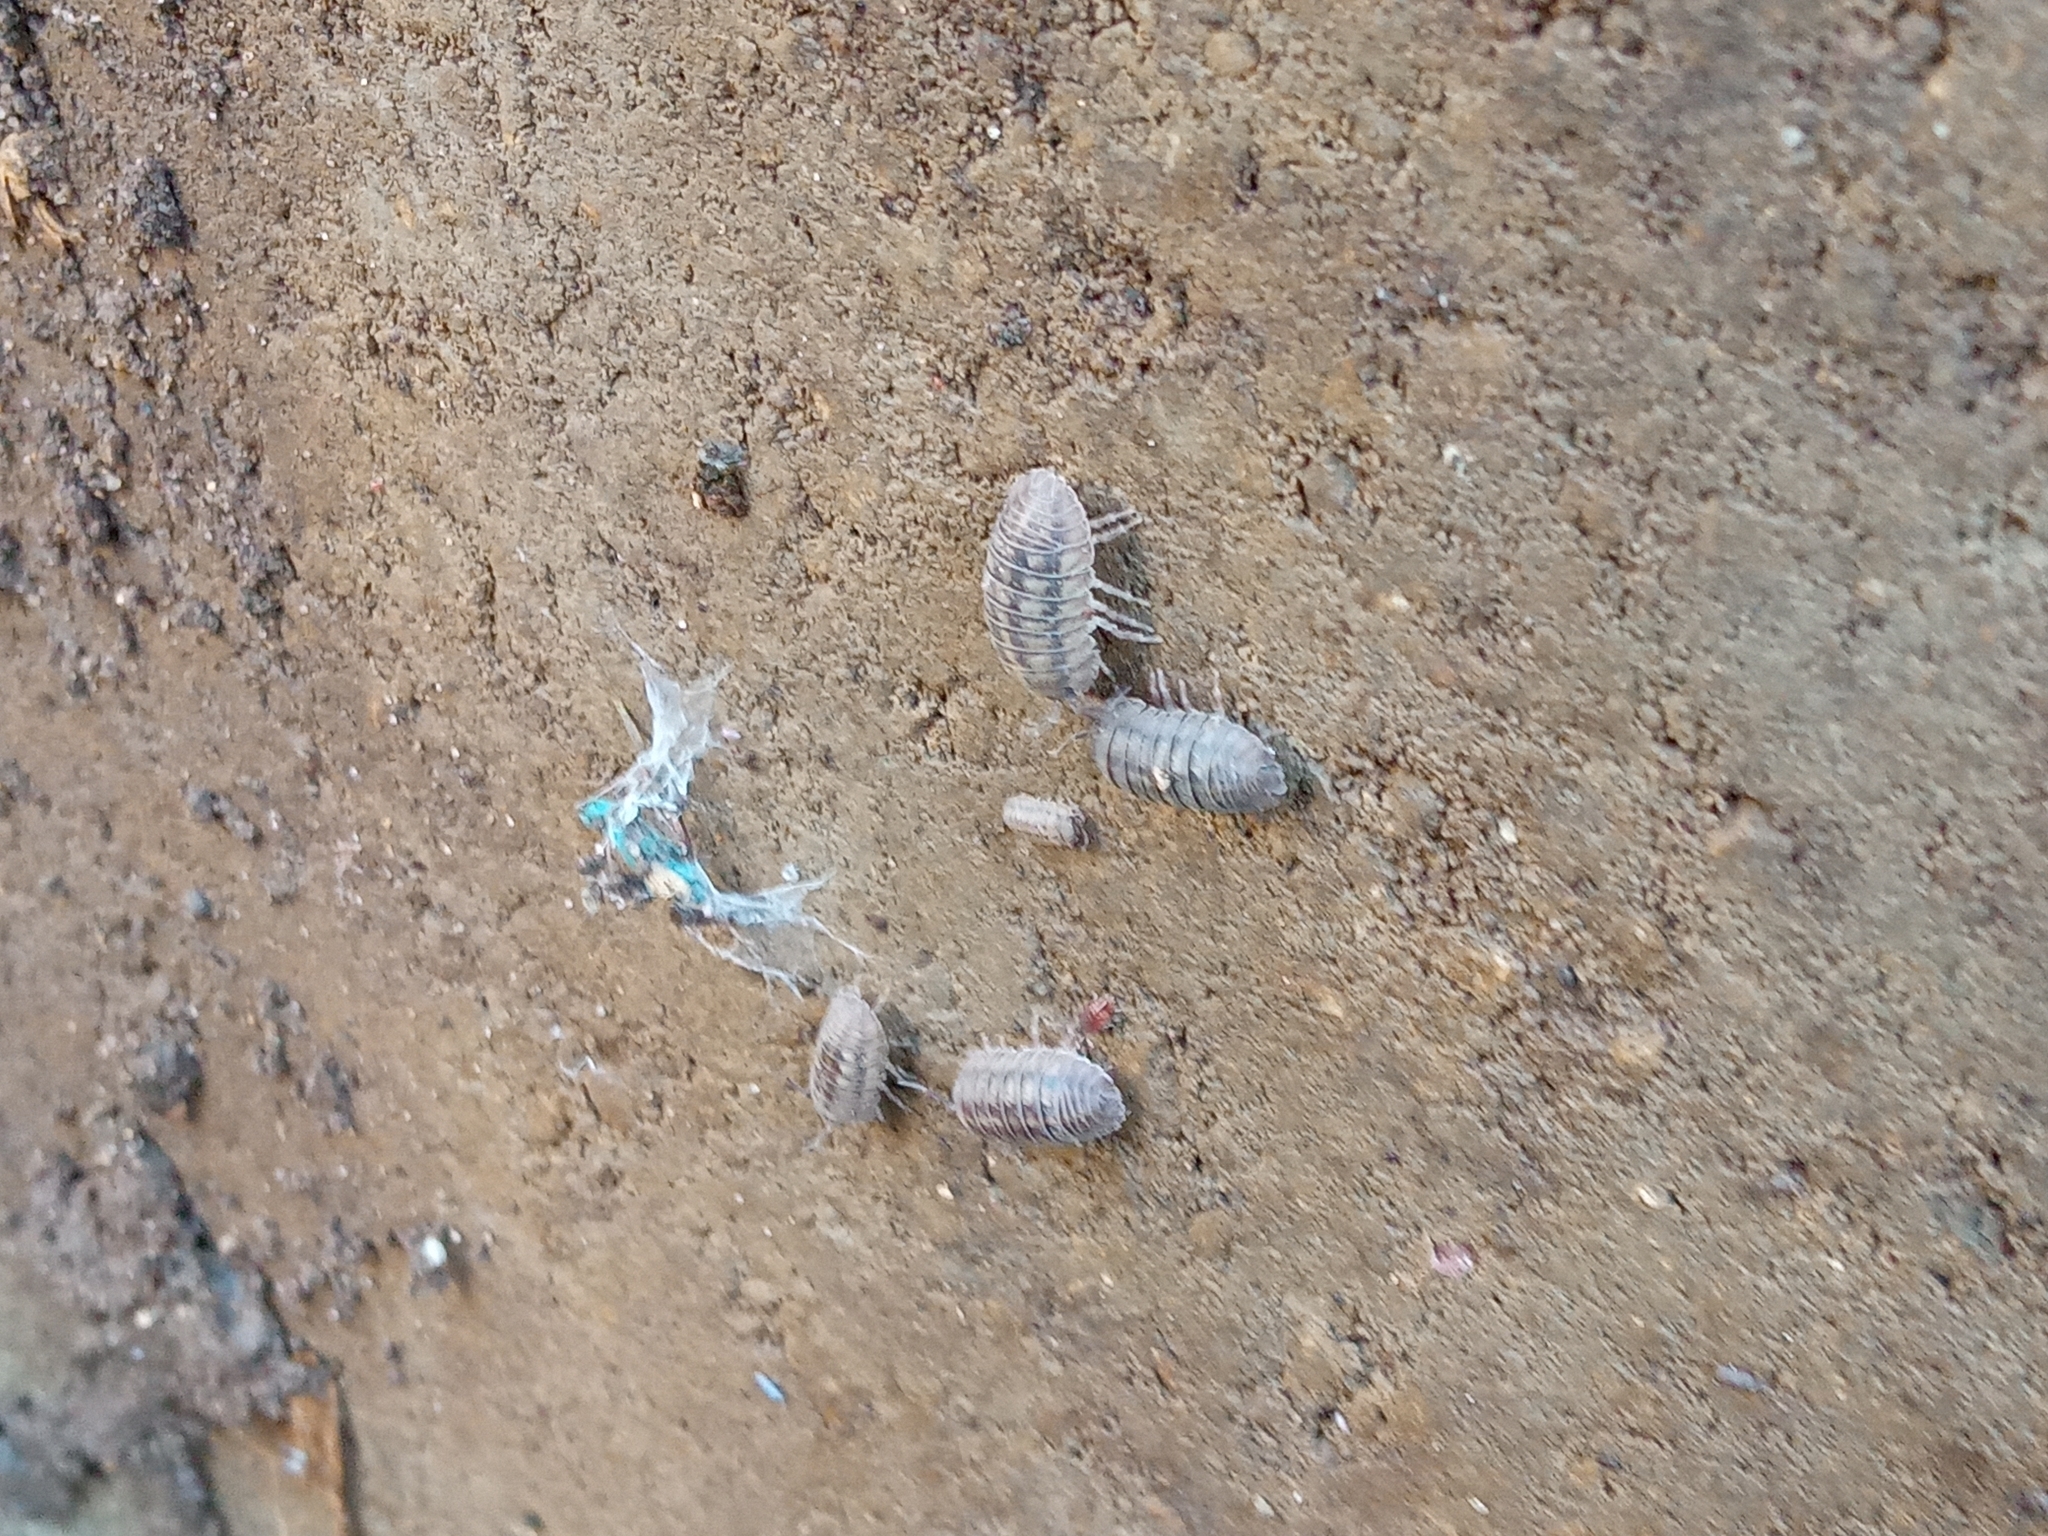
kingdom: Animalia
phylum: Arthropoda
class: Malacostraca
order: Isopoda
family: Armadillidiidae
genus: Armadillidium
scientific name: Armadillidium nasatum
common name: Isopod
